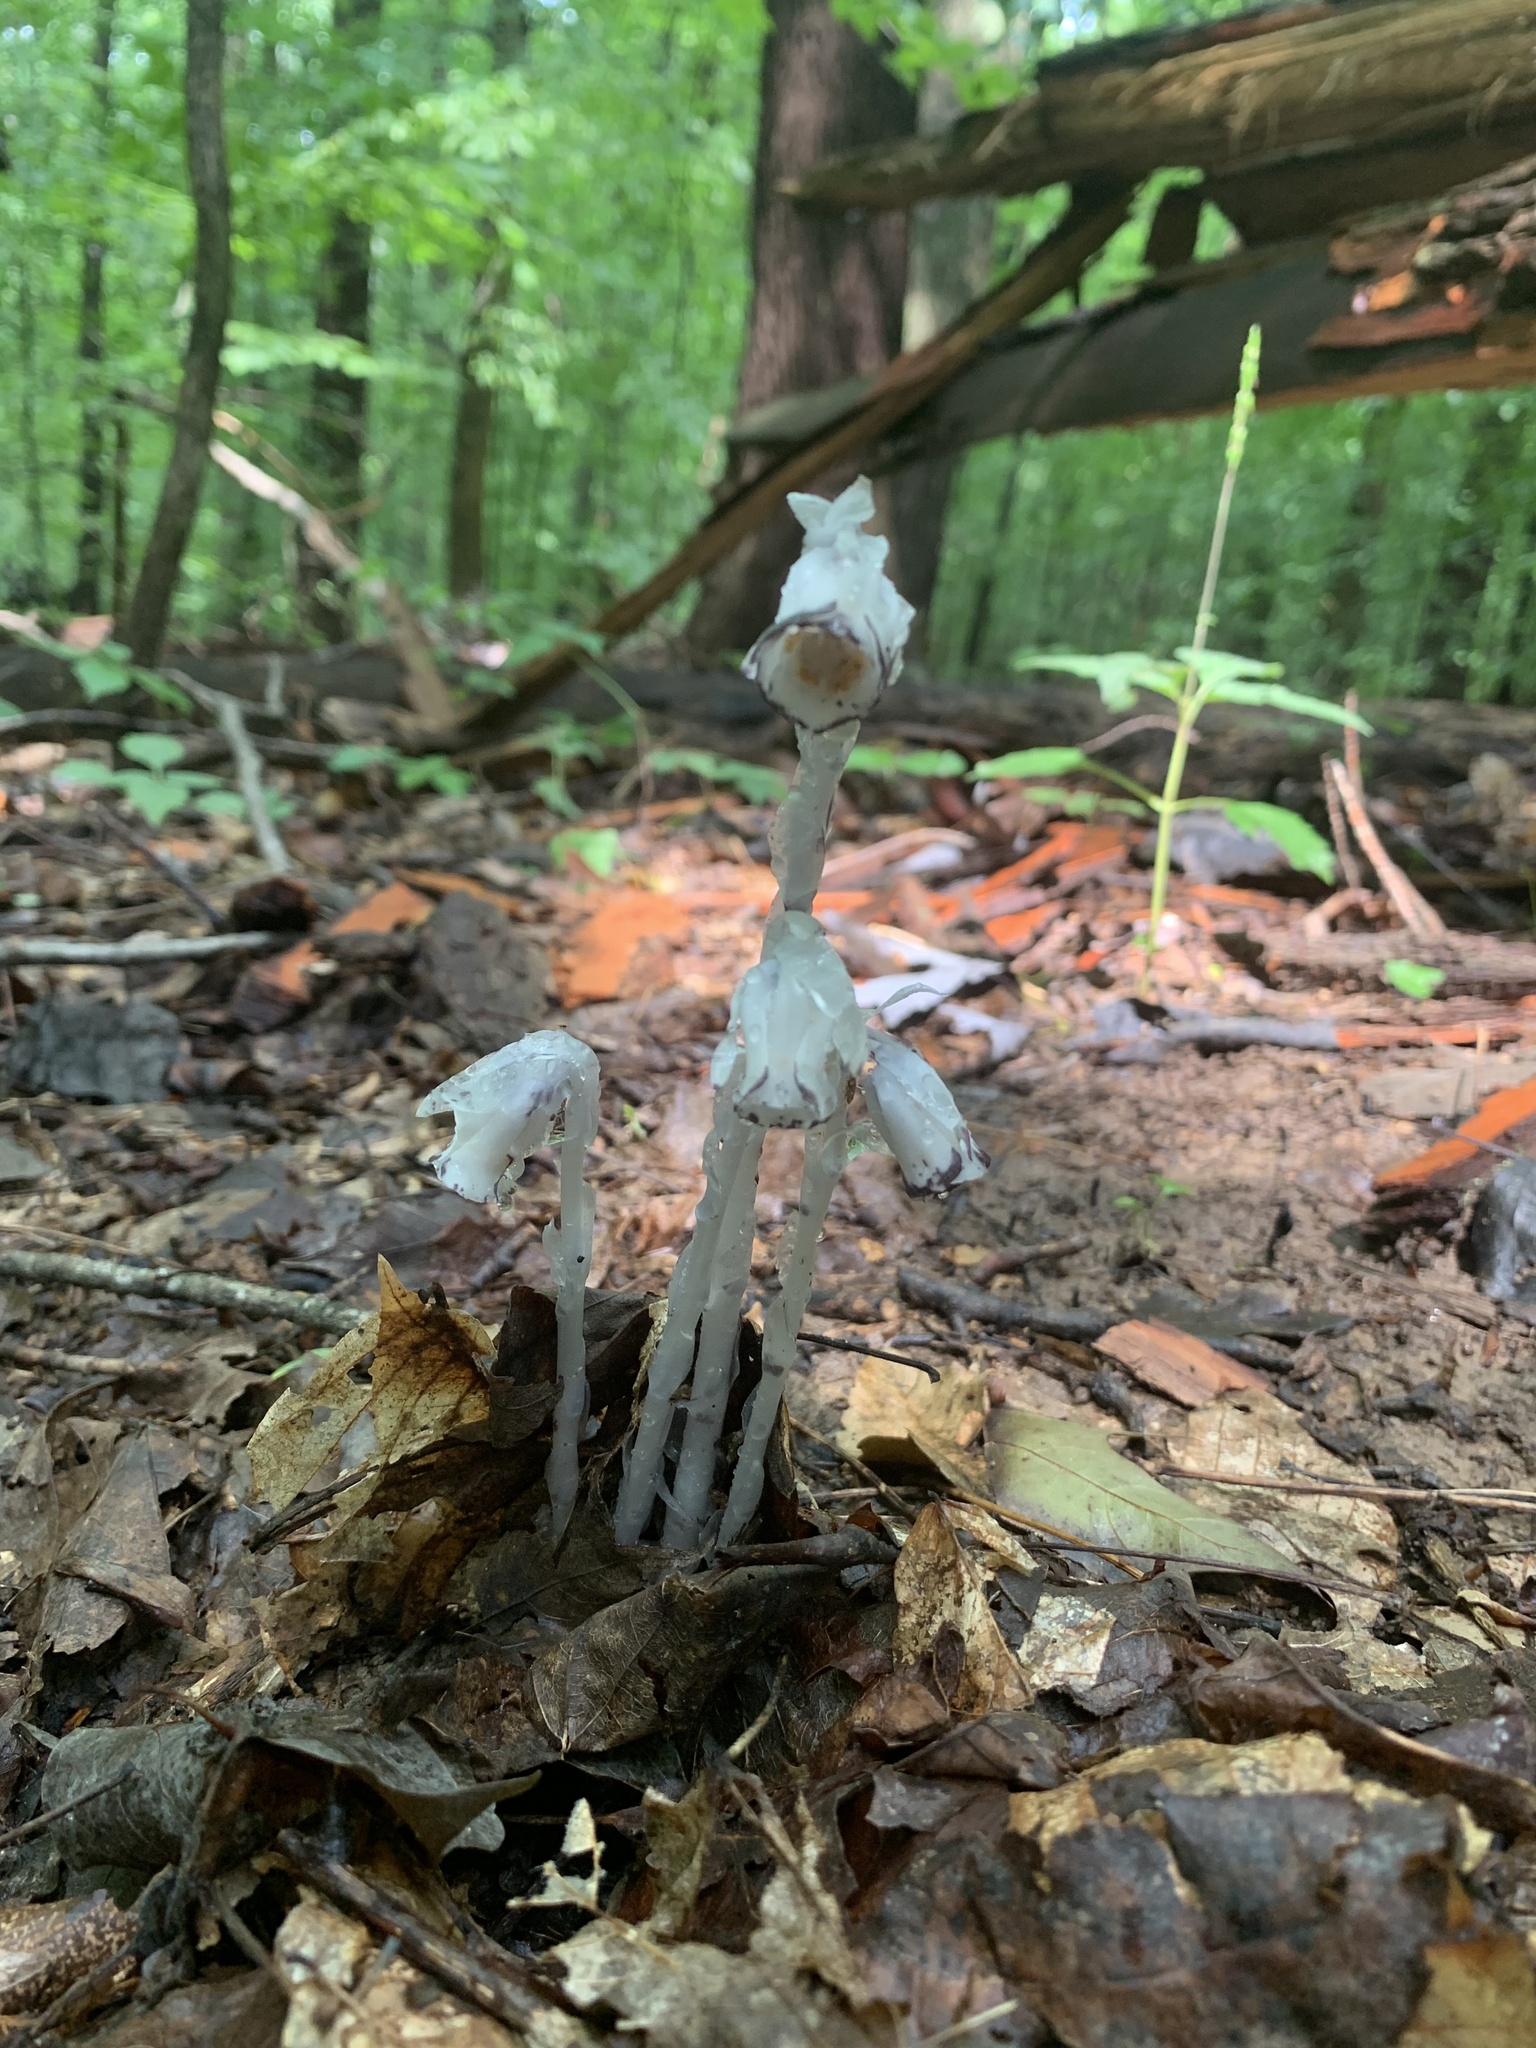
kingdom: Plantae
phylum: Tracheophyta
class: Magnoliopsida
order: Ericales
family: Ericaceae
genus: Monotropa
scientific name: Monotropa uniflora
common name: Convulsion root
